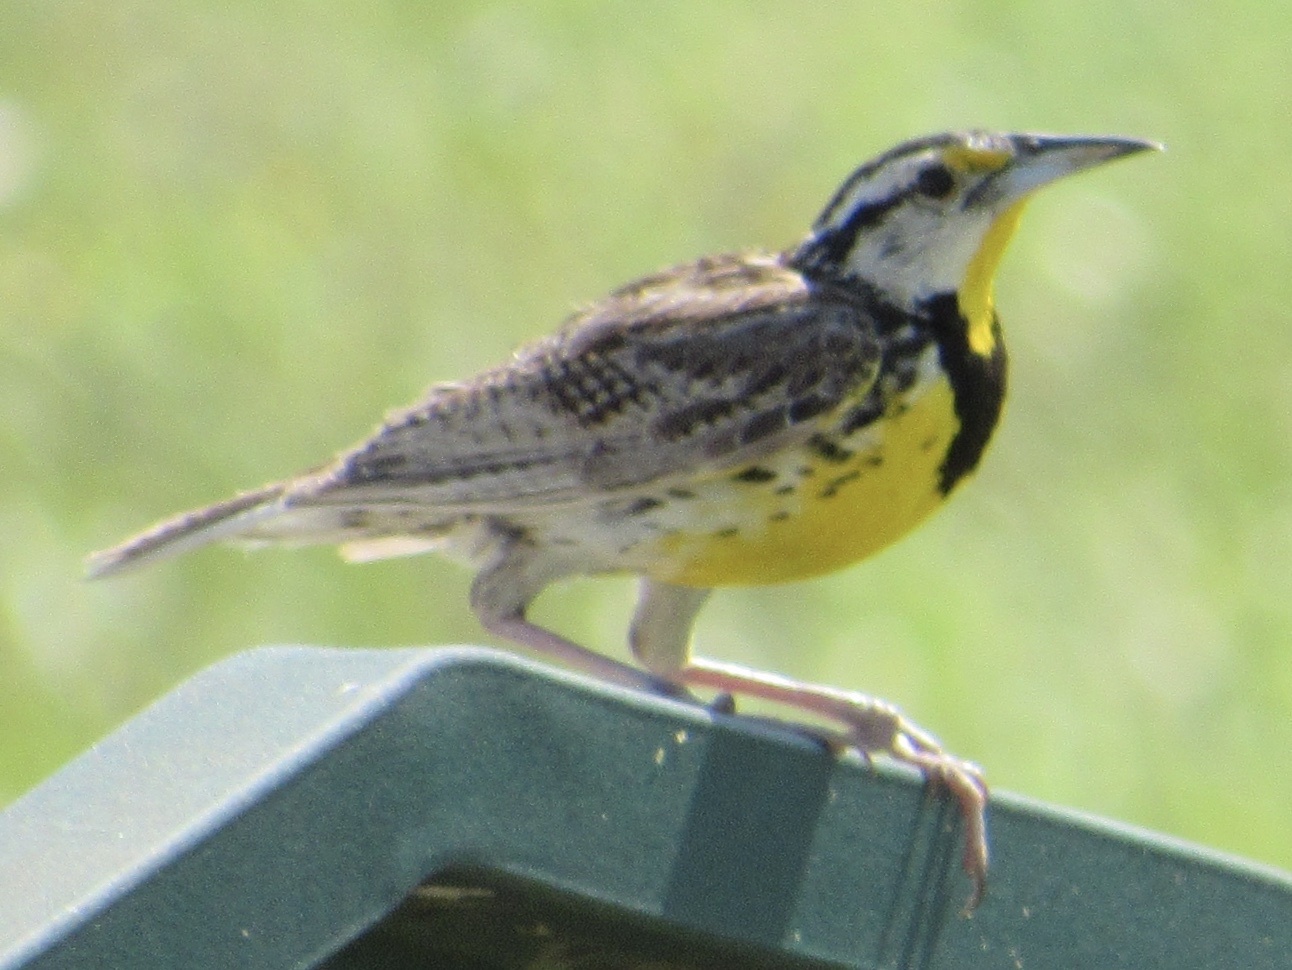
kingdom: Animalia
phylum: Chordata
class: Aves
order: Passeriformes
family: Icteridae
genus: Sturnella
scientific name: Sturnella magna
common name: Eastern meadowlark
